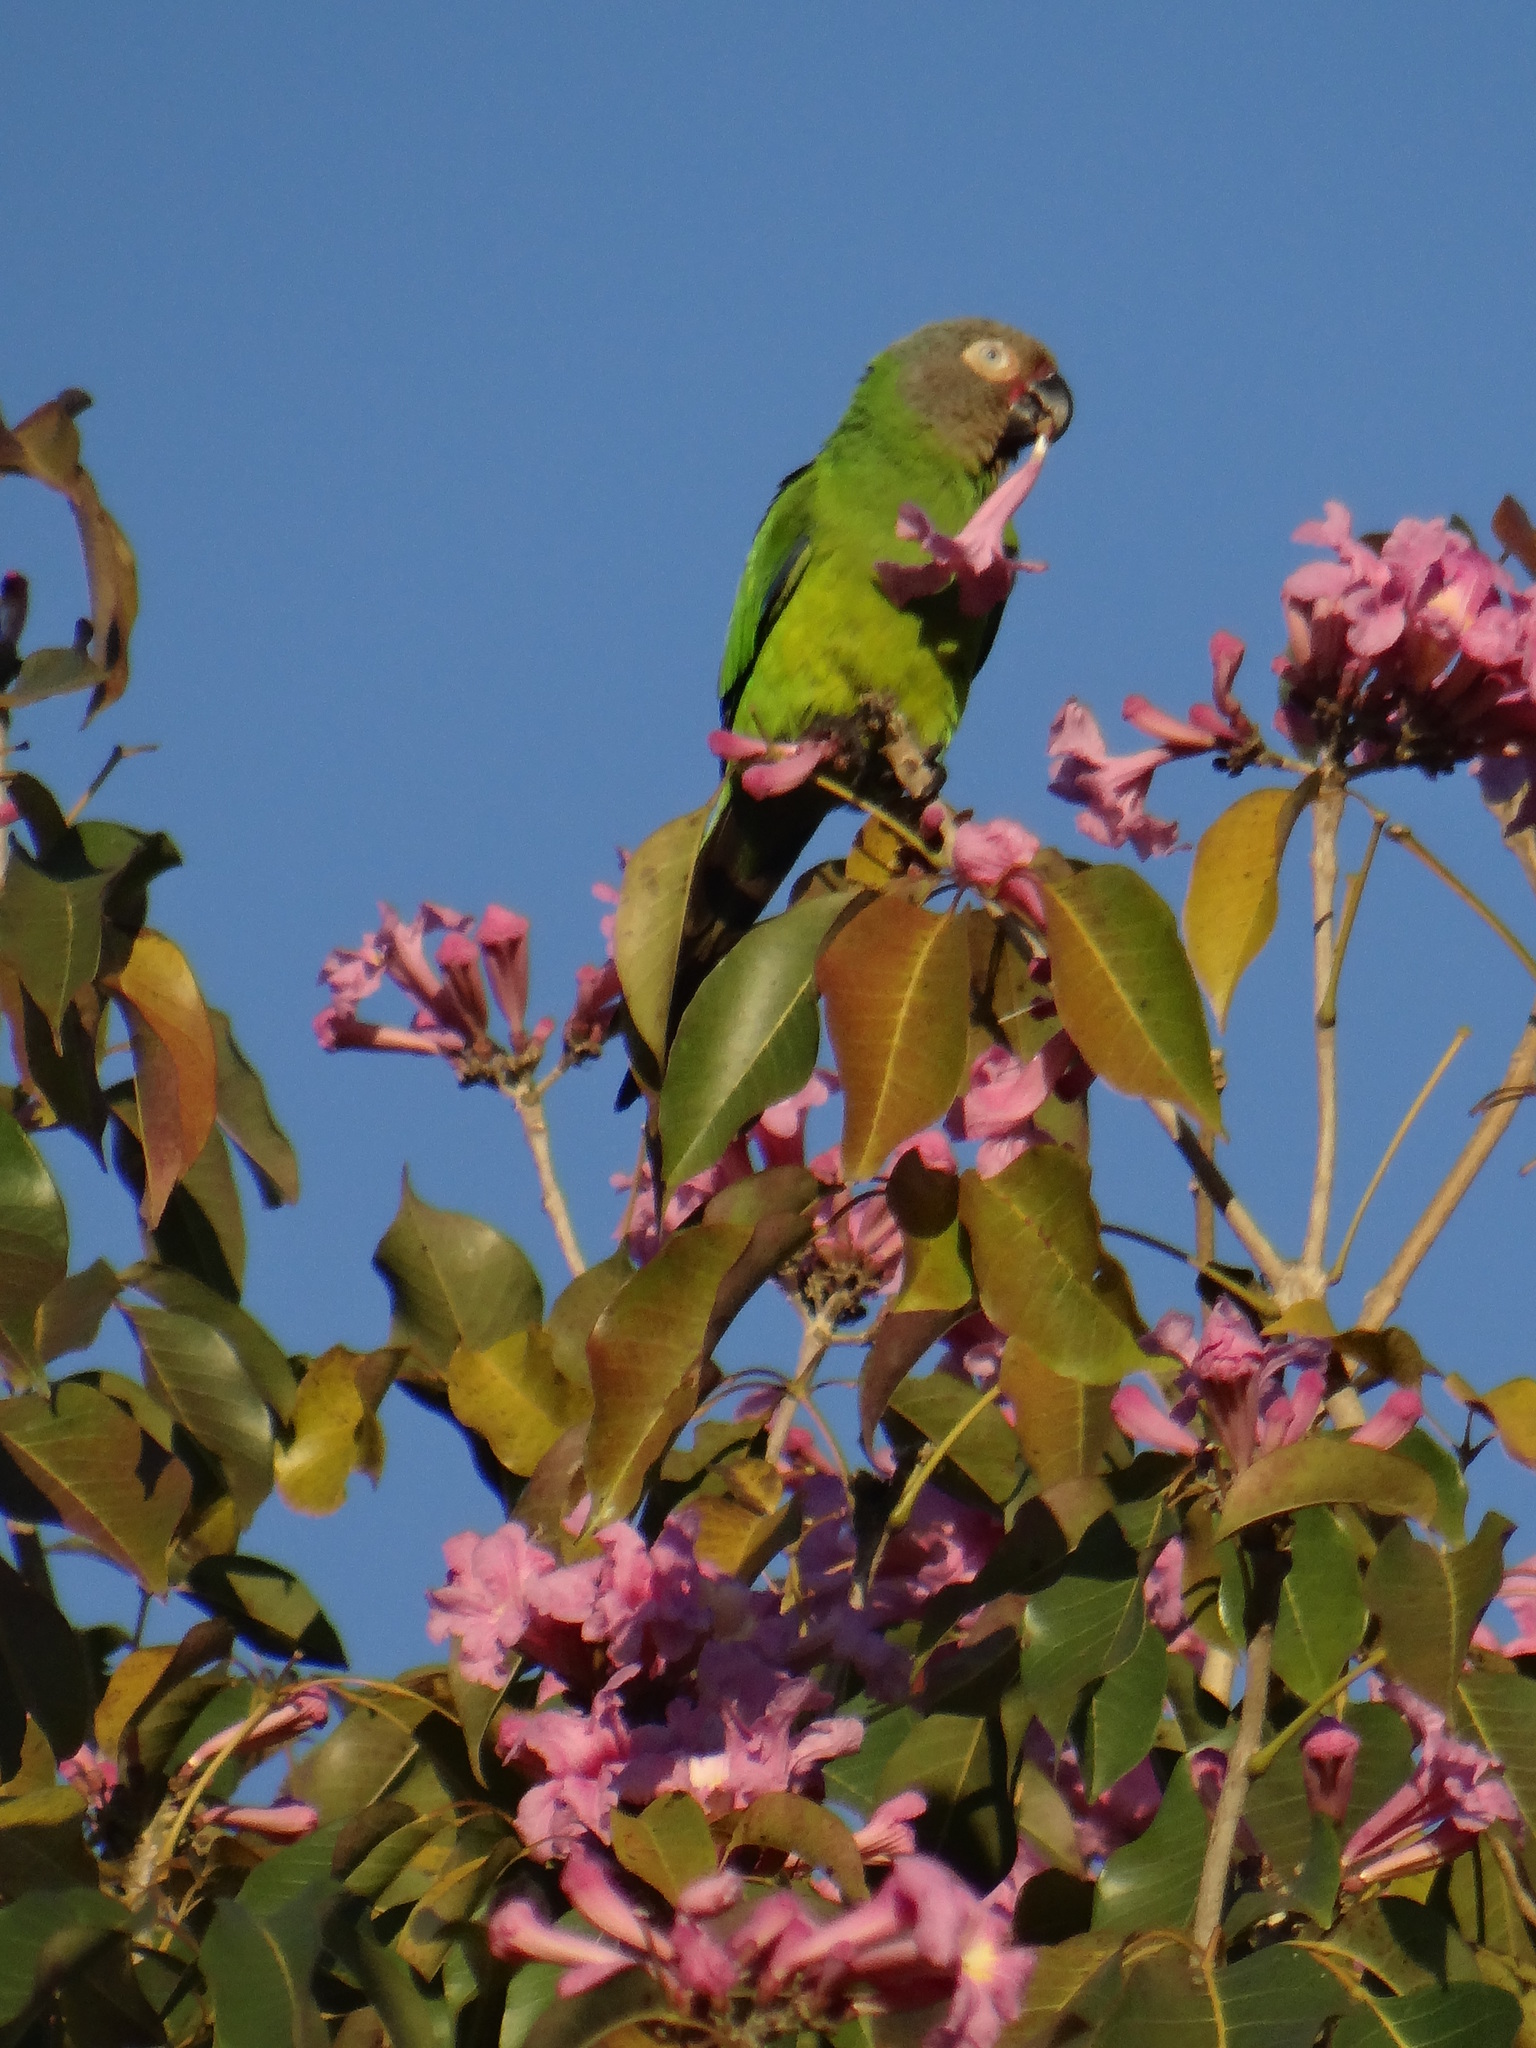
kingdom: Animalia
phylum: Chordata
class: Aves
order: Psittaciformes
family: Psittacidae
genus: Aratinga
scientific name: Aratinga weddellii
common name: Dusky-headed parakeet
